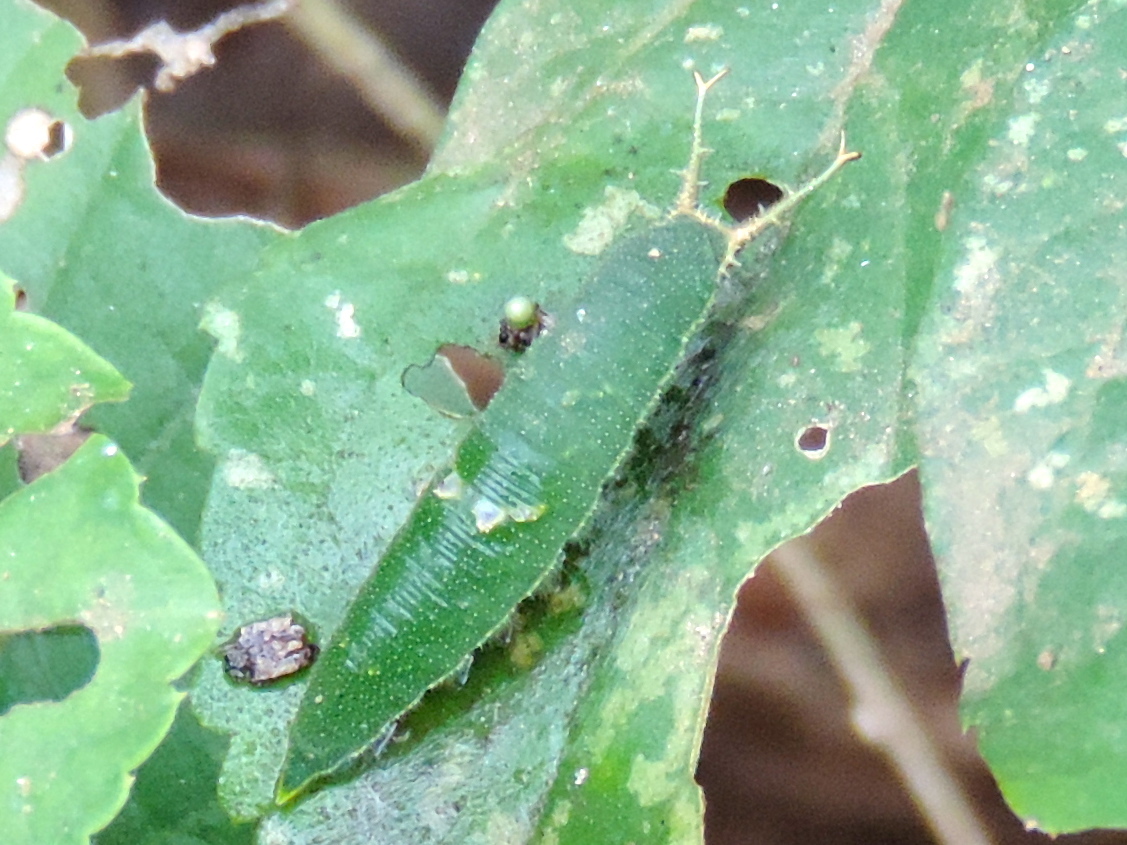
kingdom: Animalia
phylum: Arthropoda
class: Insecta
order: Lepidoptera
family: Nymphalidae
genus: Doxocopa
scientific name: Doxocopa pavon
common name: Pavon emperor
